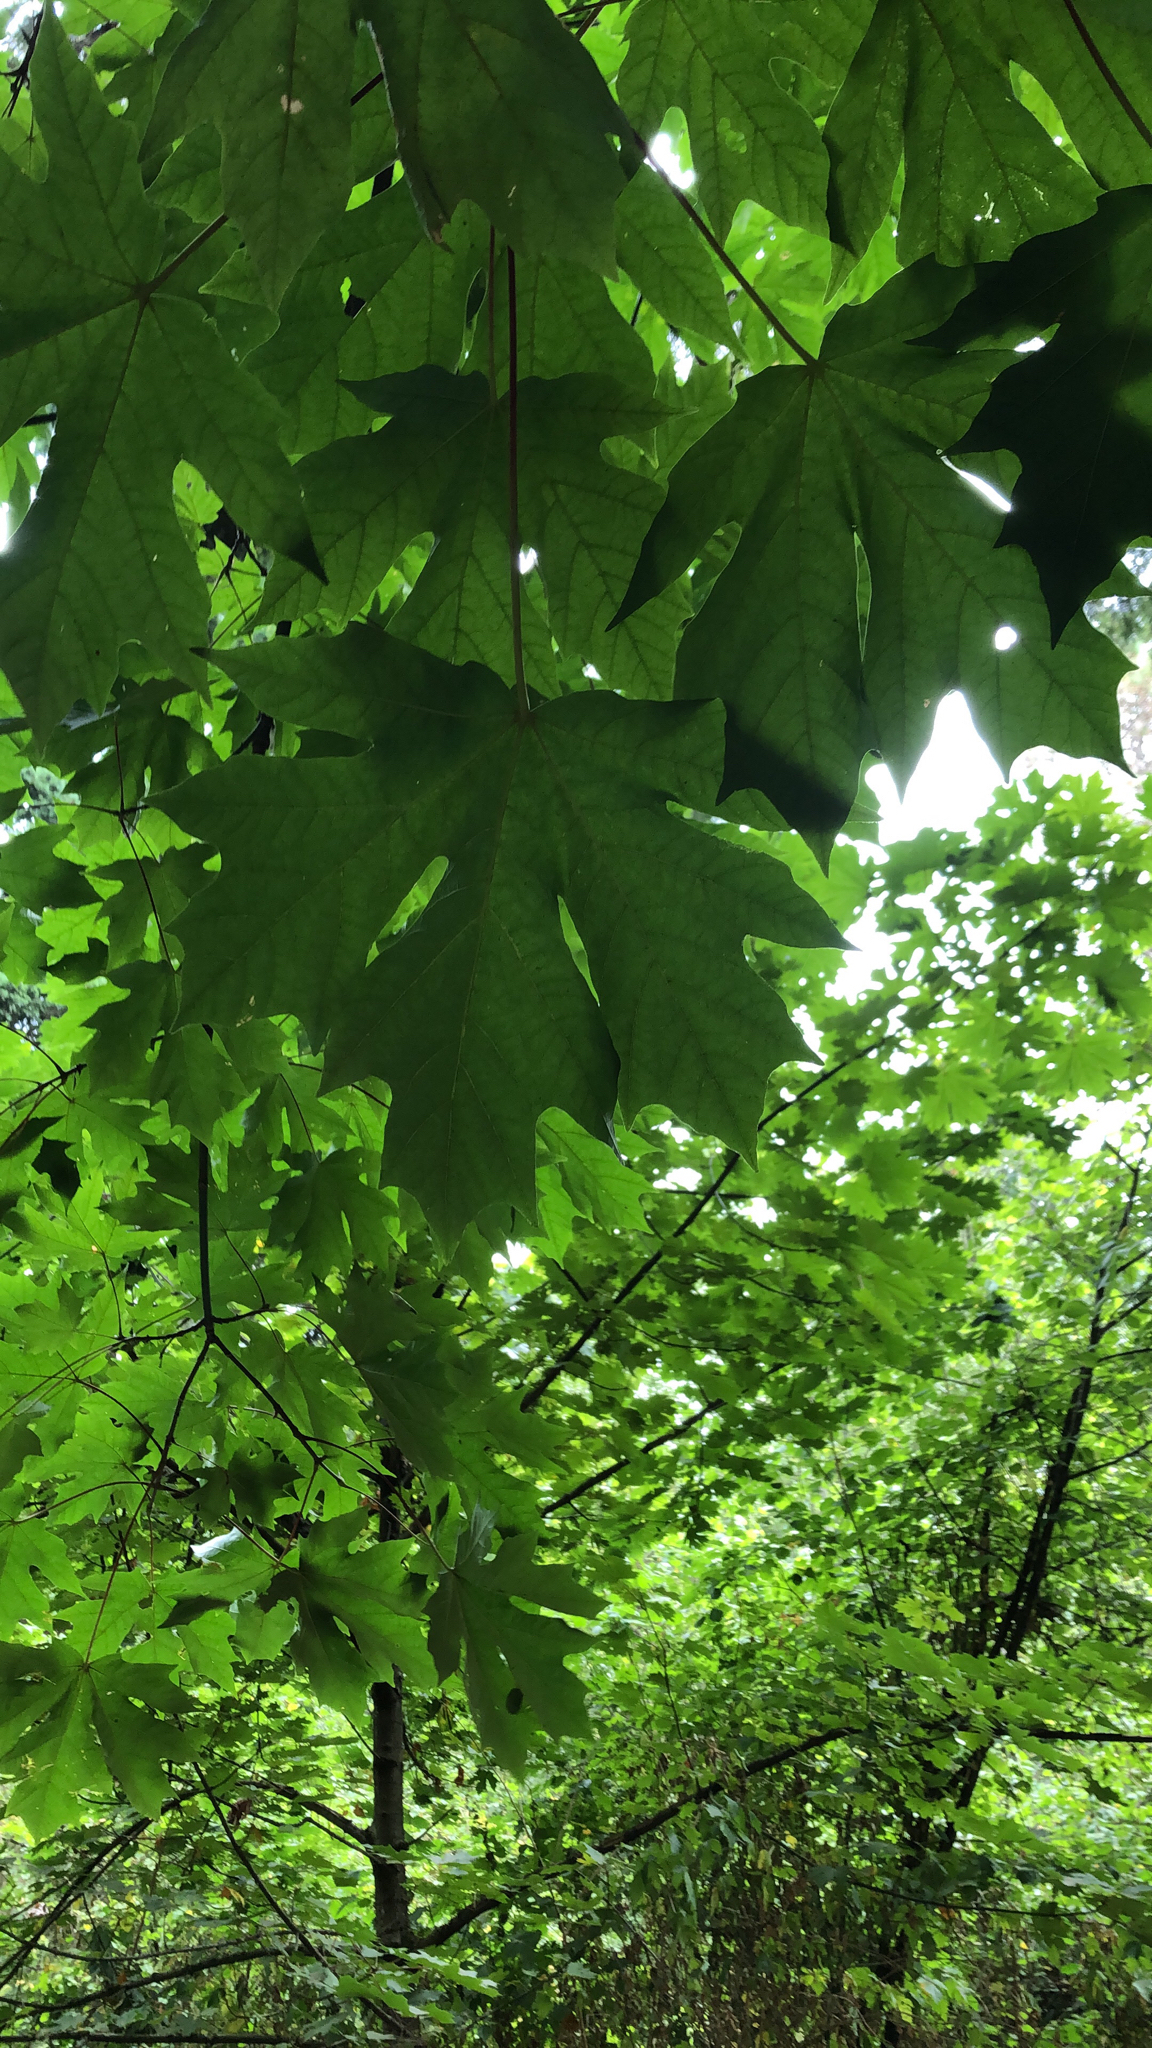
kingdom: Plantae
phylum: Tracheophyta
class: Magnoliopsida
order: Sapindales
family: Sapindaceae
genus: Acer
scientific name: Acer macrophyllum
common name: Oregon maple
